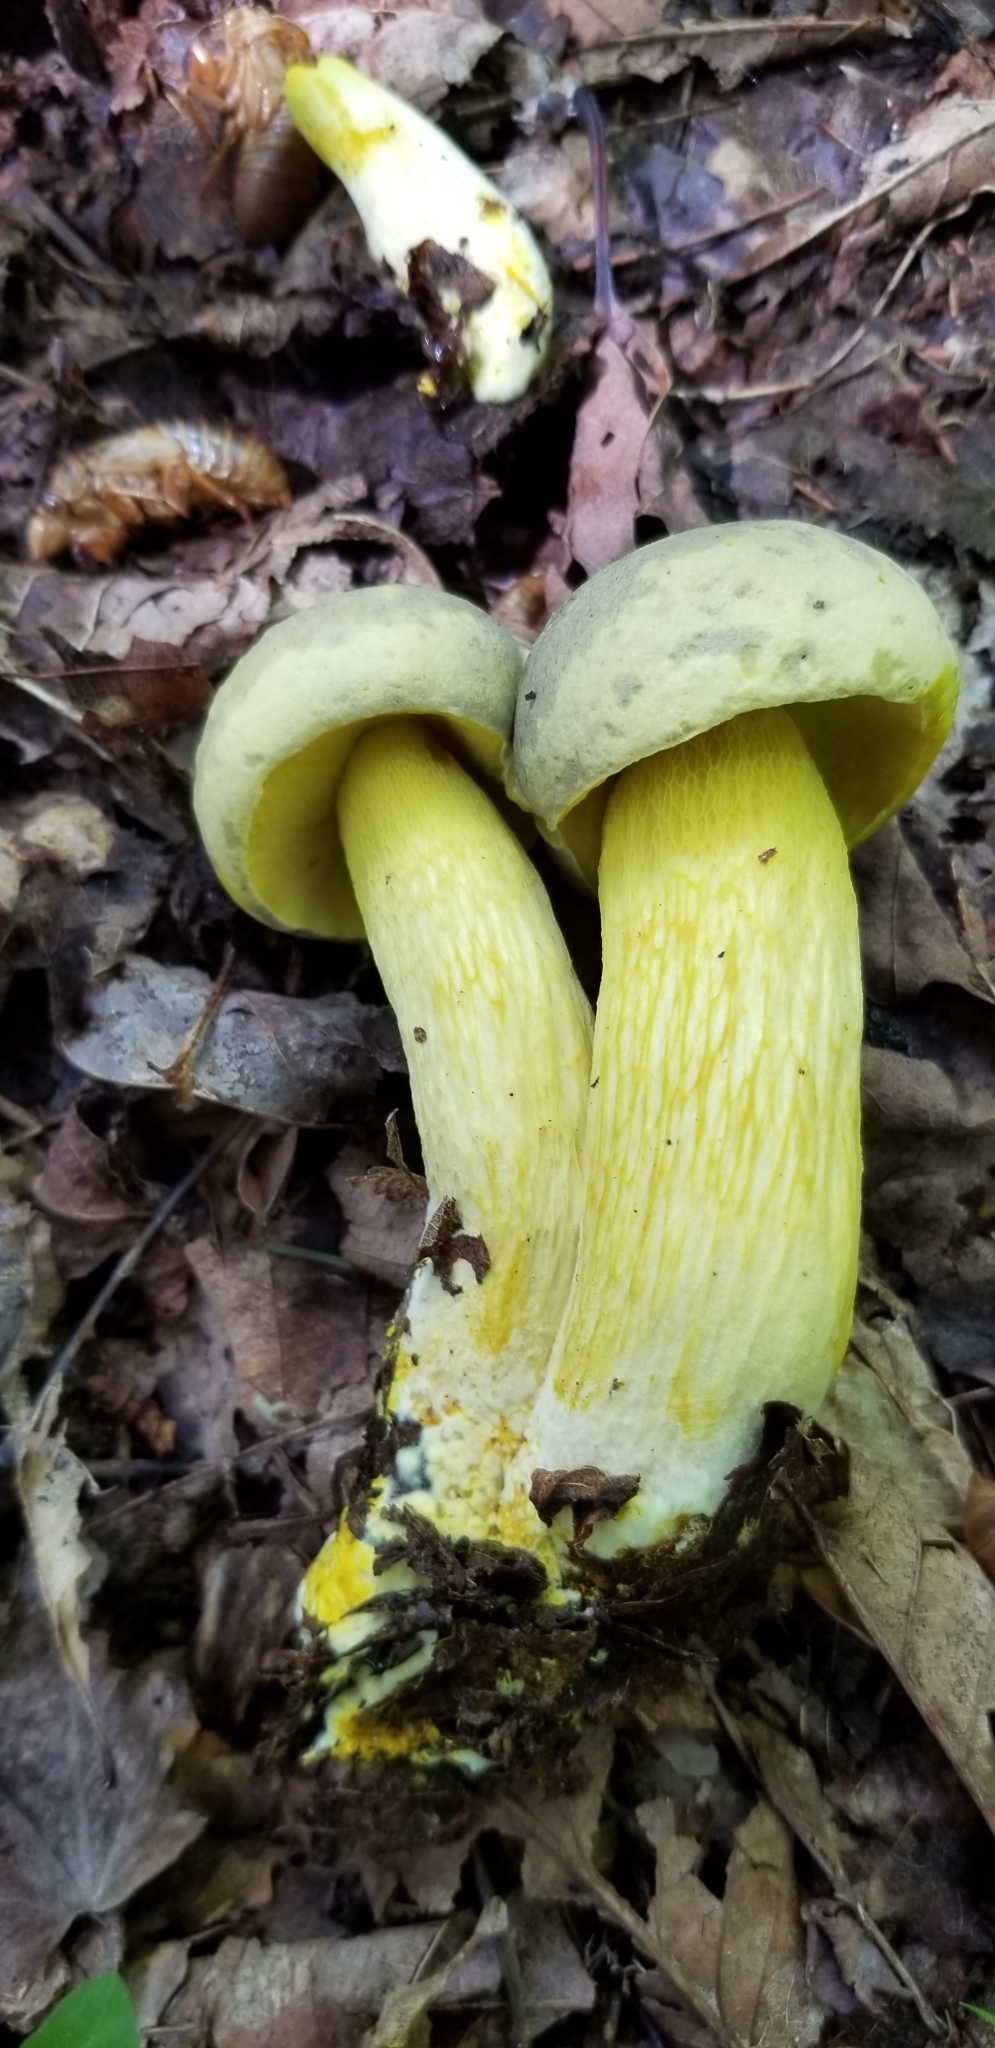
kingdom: Fungi
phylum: Basidiomycota
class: Agaricomycetes
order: Boletales
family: Boletaceae
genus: Retiboletus
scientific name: Retiboletus ornatipes
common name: Ornate-stalked bolete
